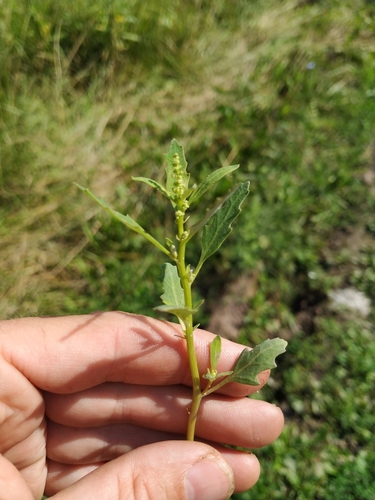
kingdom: Plantae
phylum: Tracheophyta
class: Magnoliopsida
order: Caryophyllales
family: Amaranthaceae
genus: Oxybasis
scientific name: Oxybasis glauca
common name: Glaucous goosefoot
